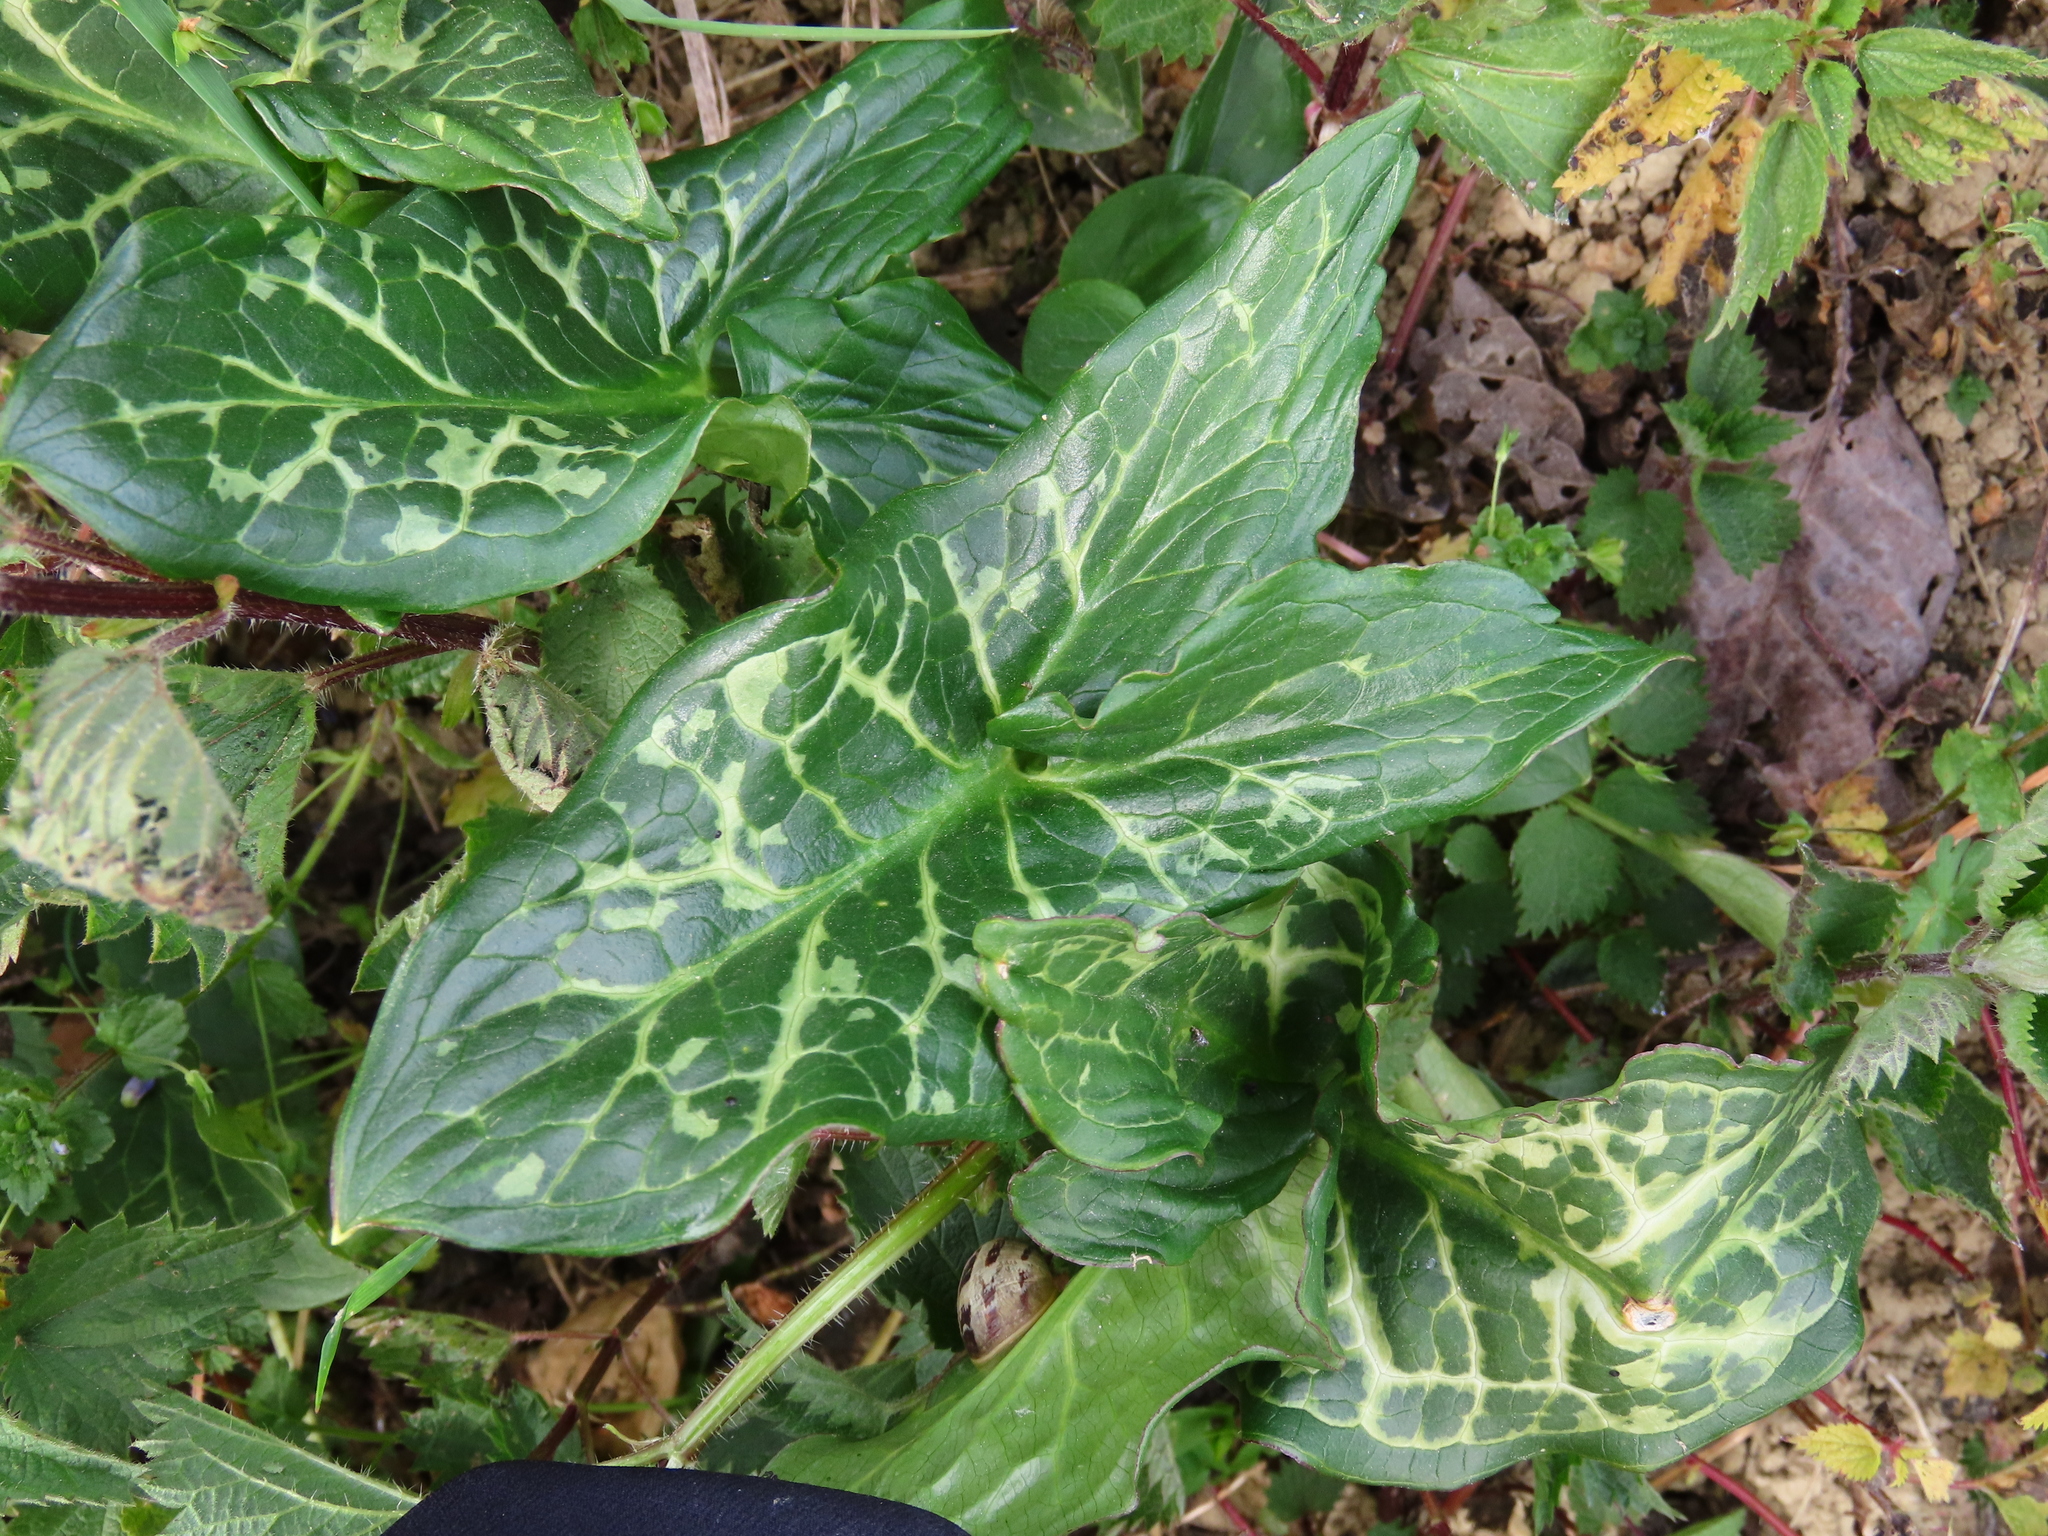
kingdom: Plantae
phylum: Tracheophyta
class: Liliopsida
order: Alismatales
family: Araceae
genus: Arum
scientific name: Arum italicum
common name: Italian lords-and-ladies
